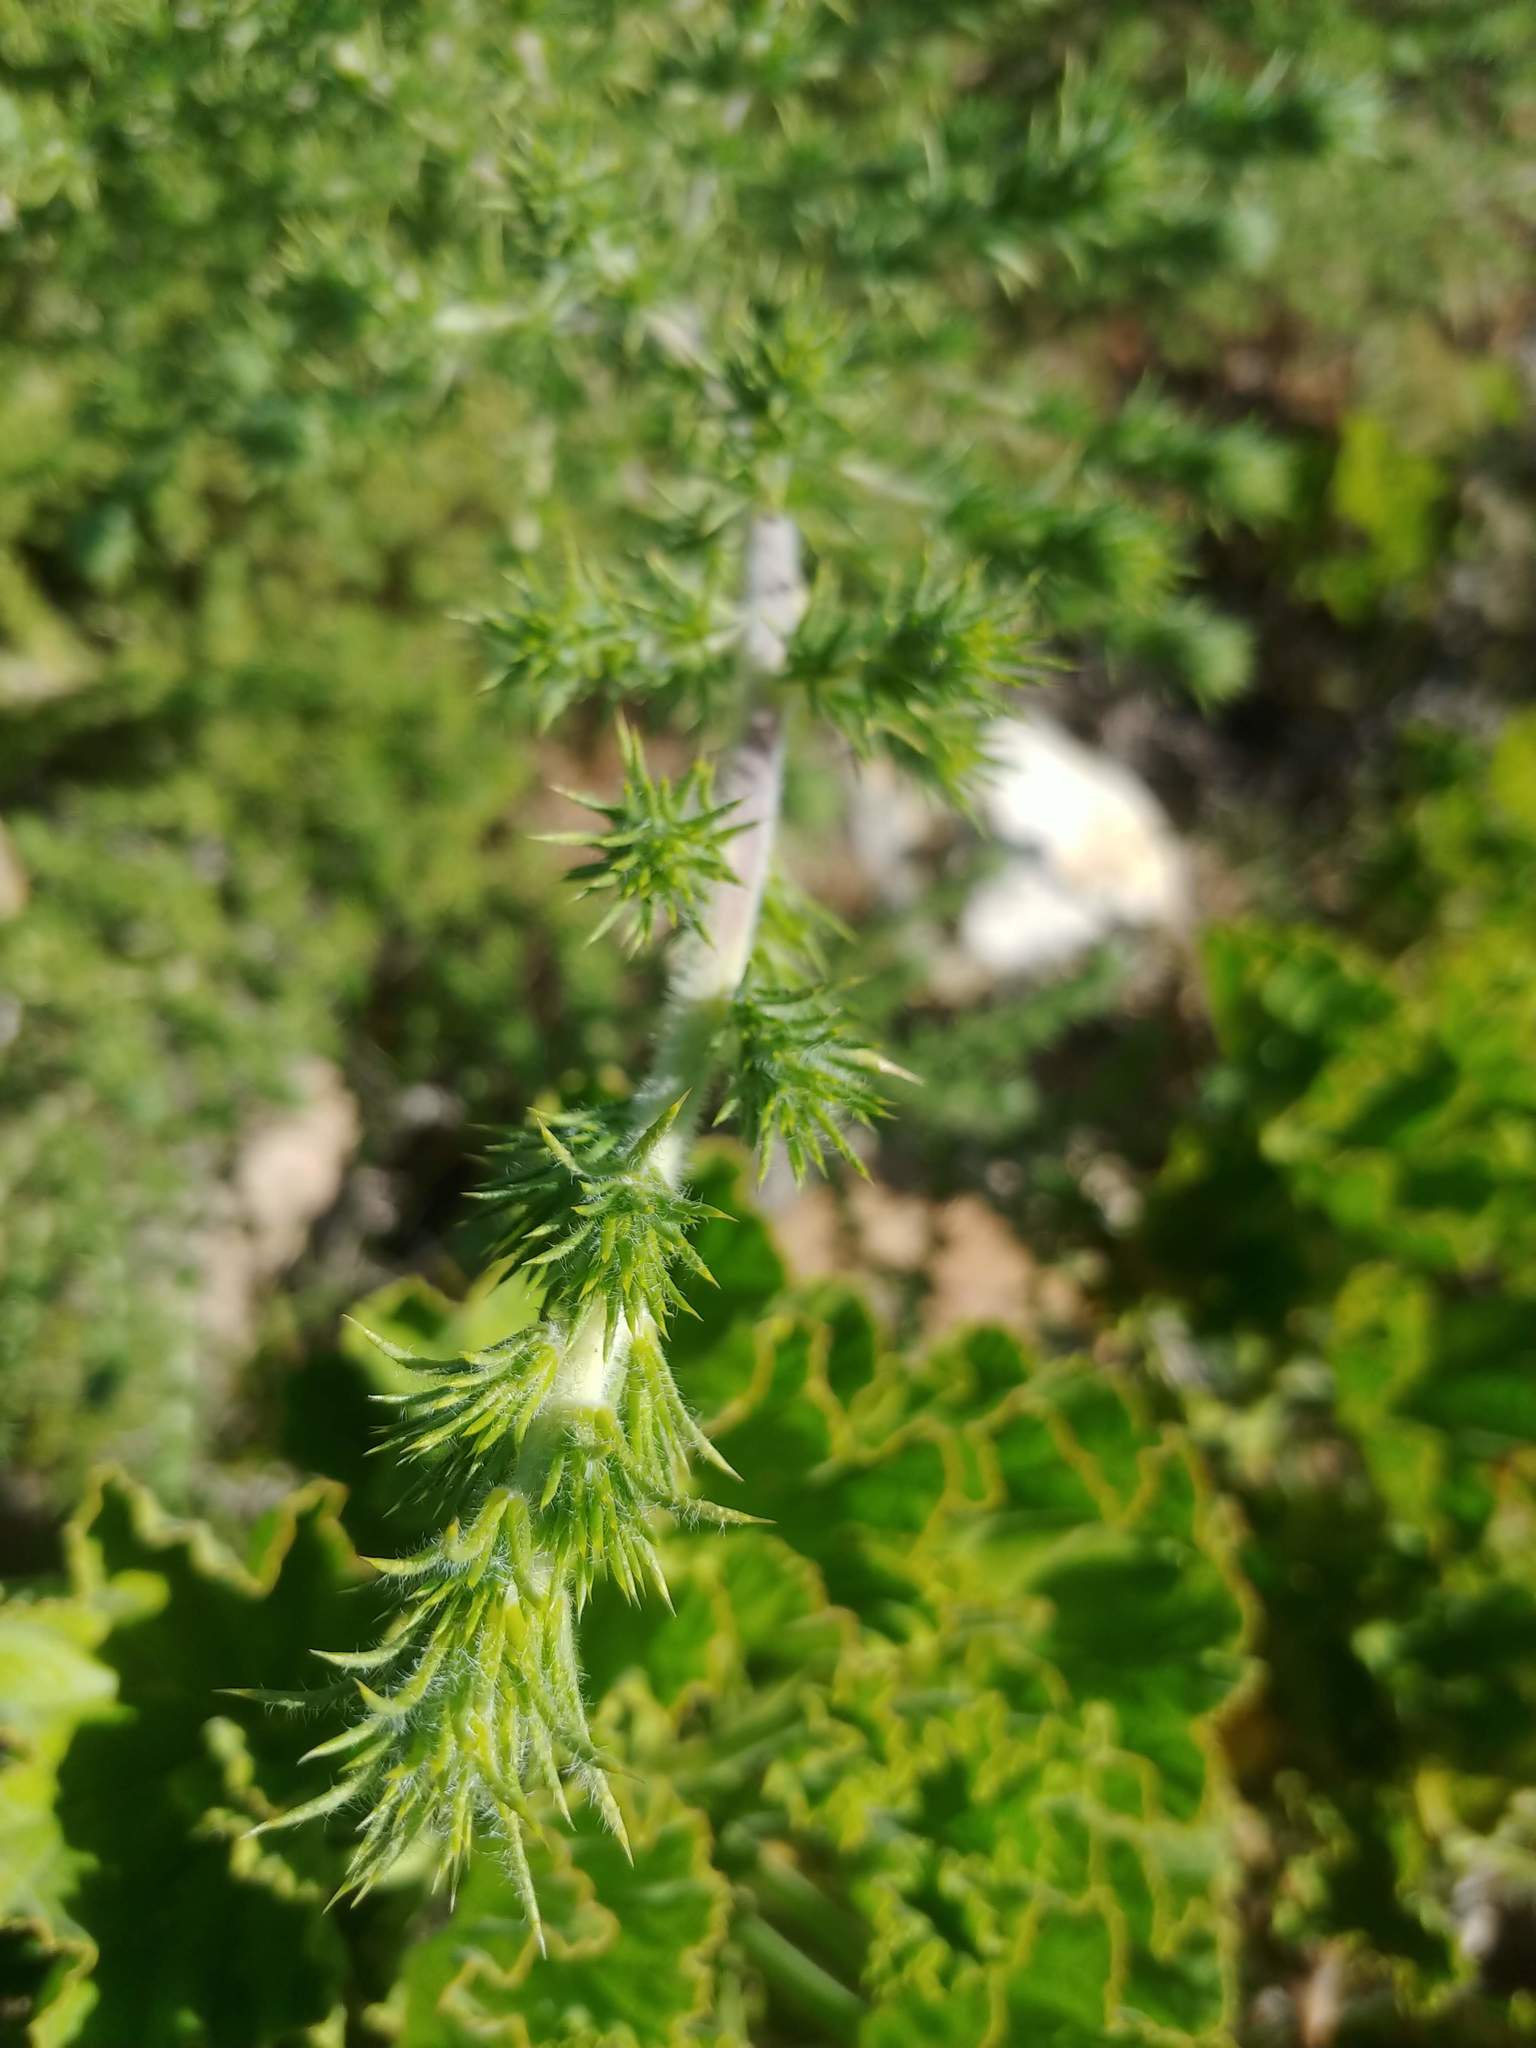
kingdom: Plantae
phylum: Tracheophyta
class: Magnoliopsida
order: Fabales
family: Fabaceae
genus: Aspalathus
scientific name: Aspalathus chenopoda
